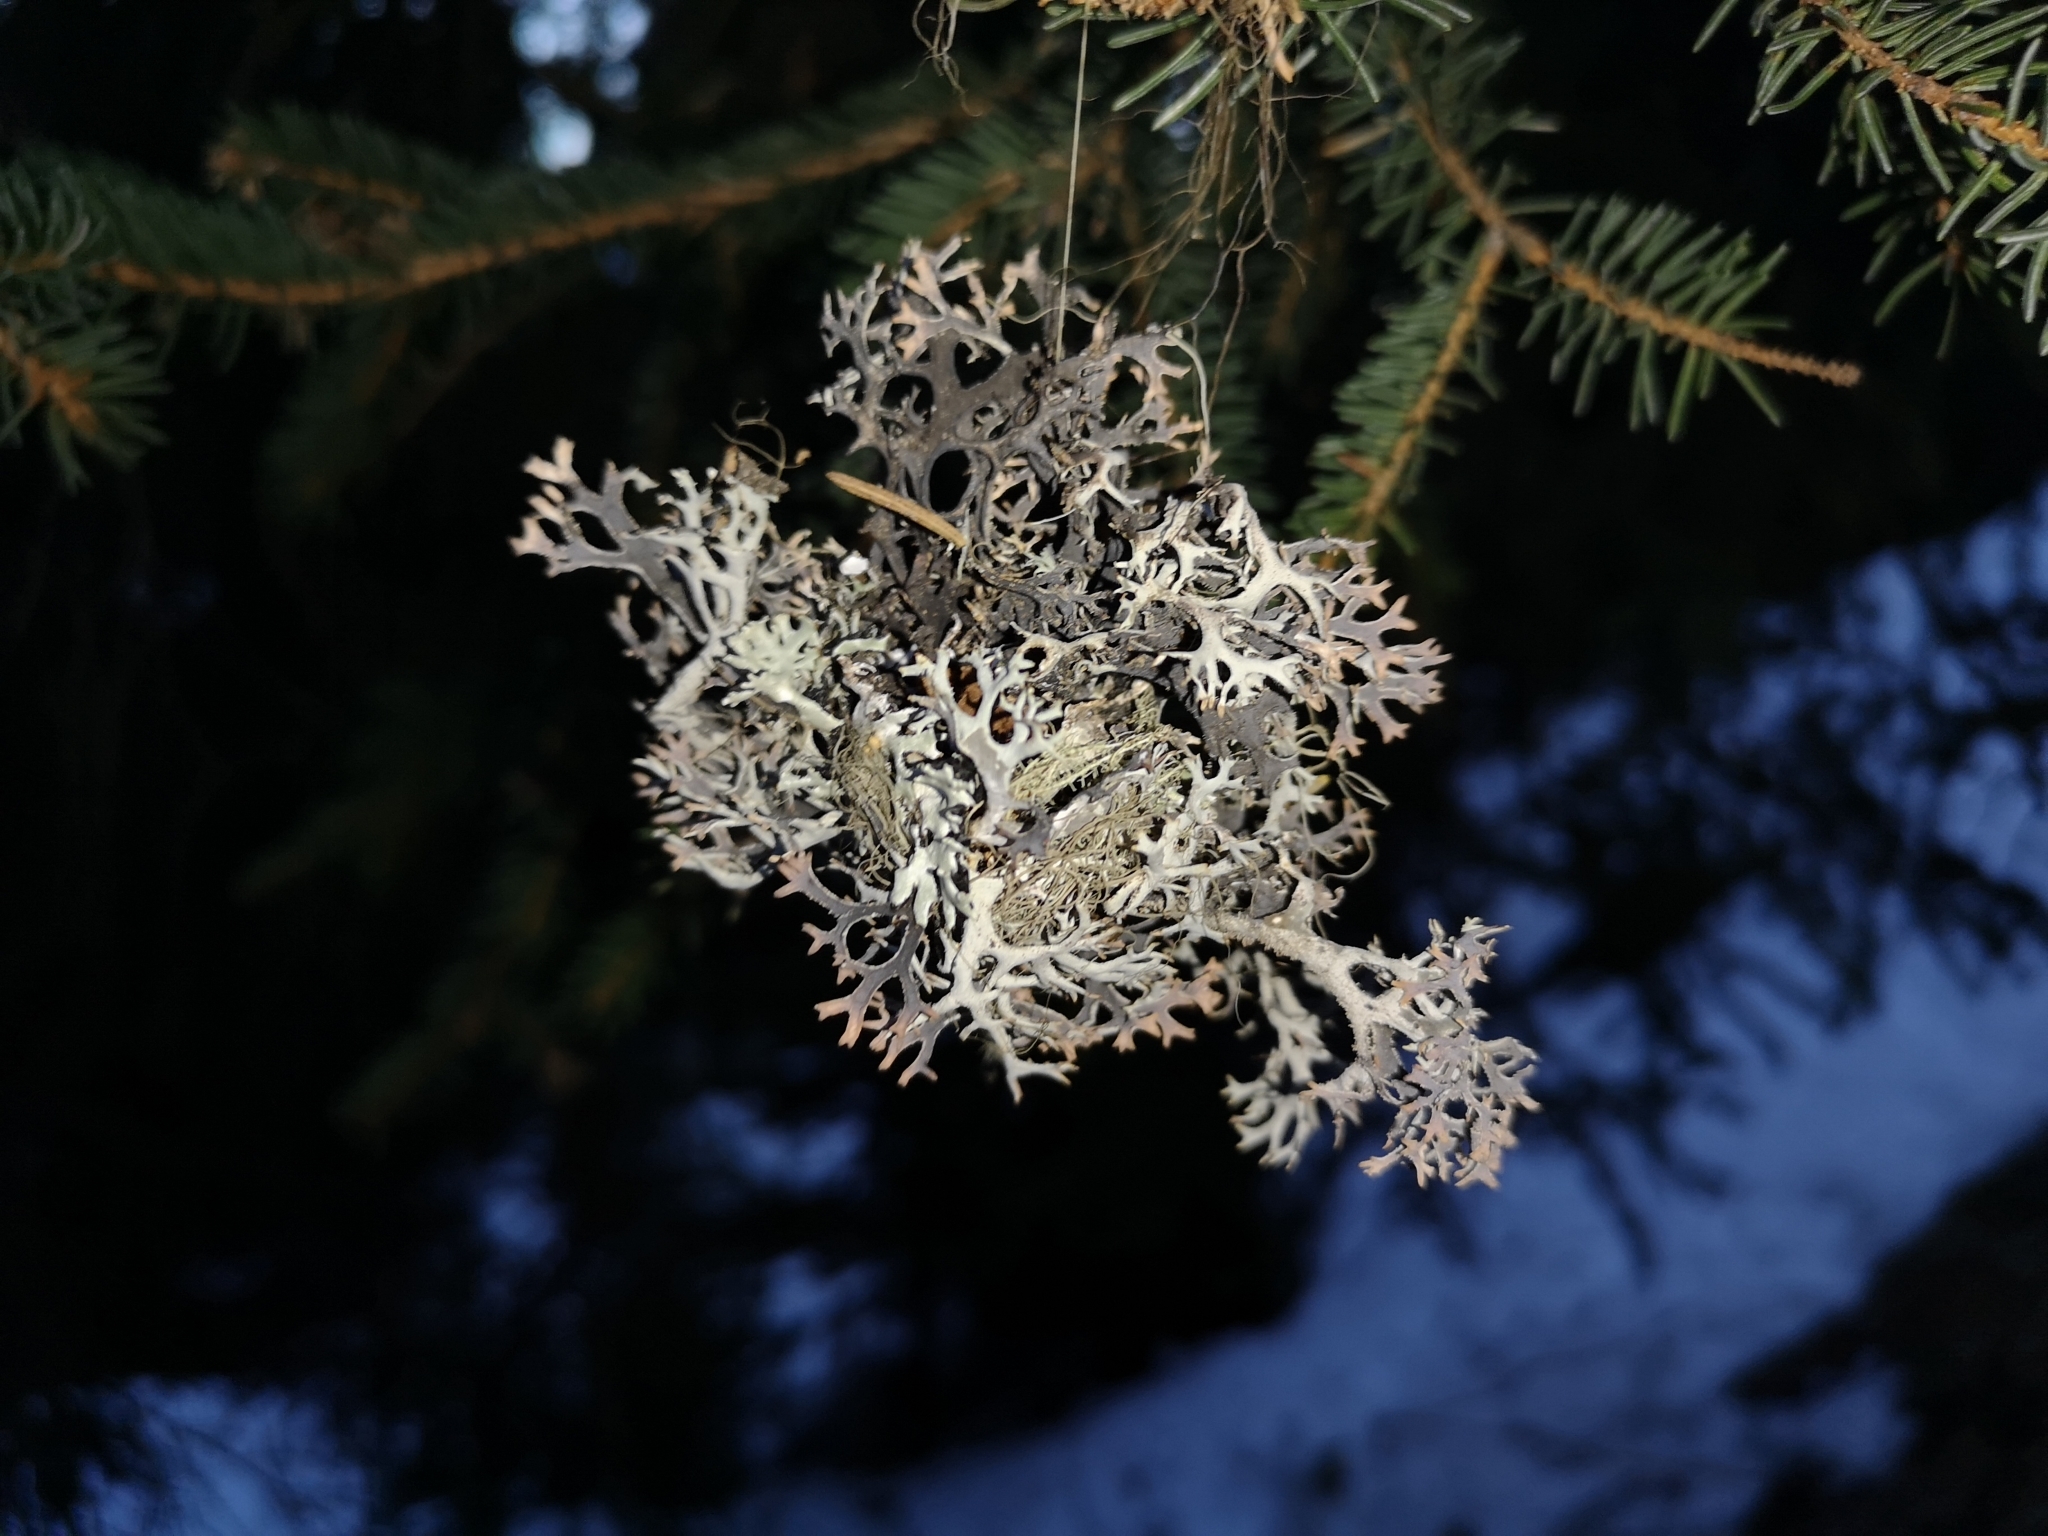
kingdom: Fungi
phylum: Ascomycota
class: Lecanoromycetes
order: Lecanorales
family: Parmeliaceae
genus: Pseudevernia
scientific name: Pseudevernia furfuracea
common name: Tree moss
